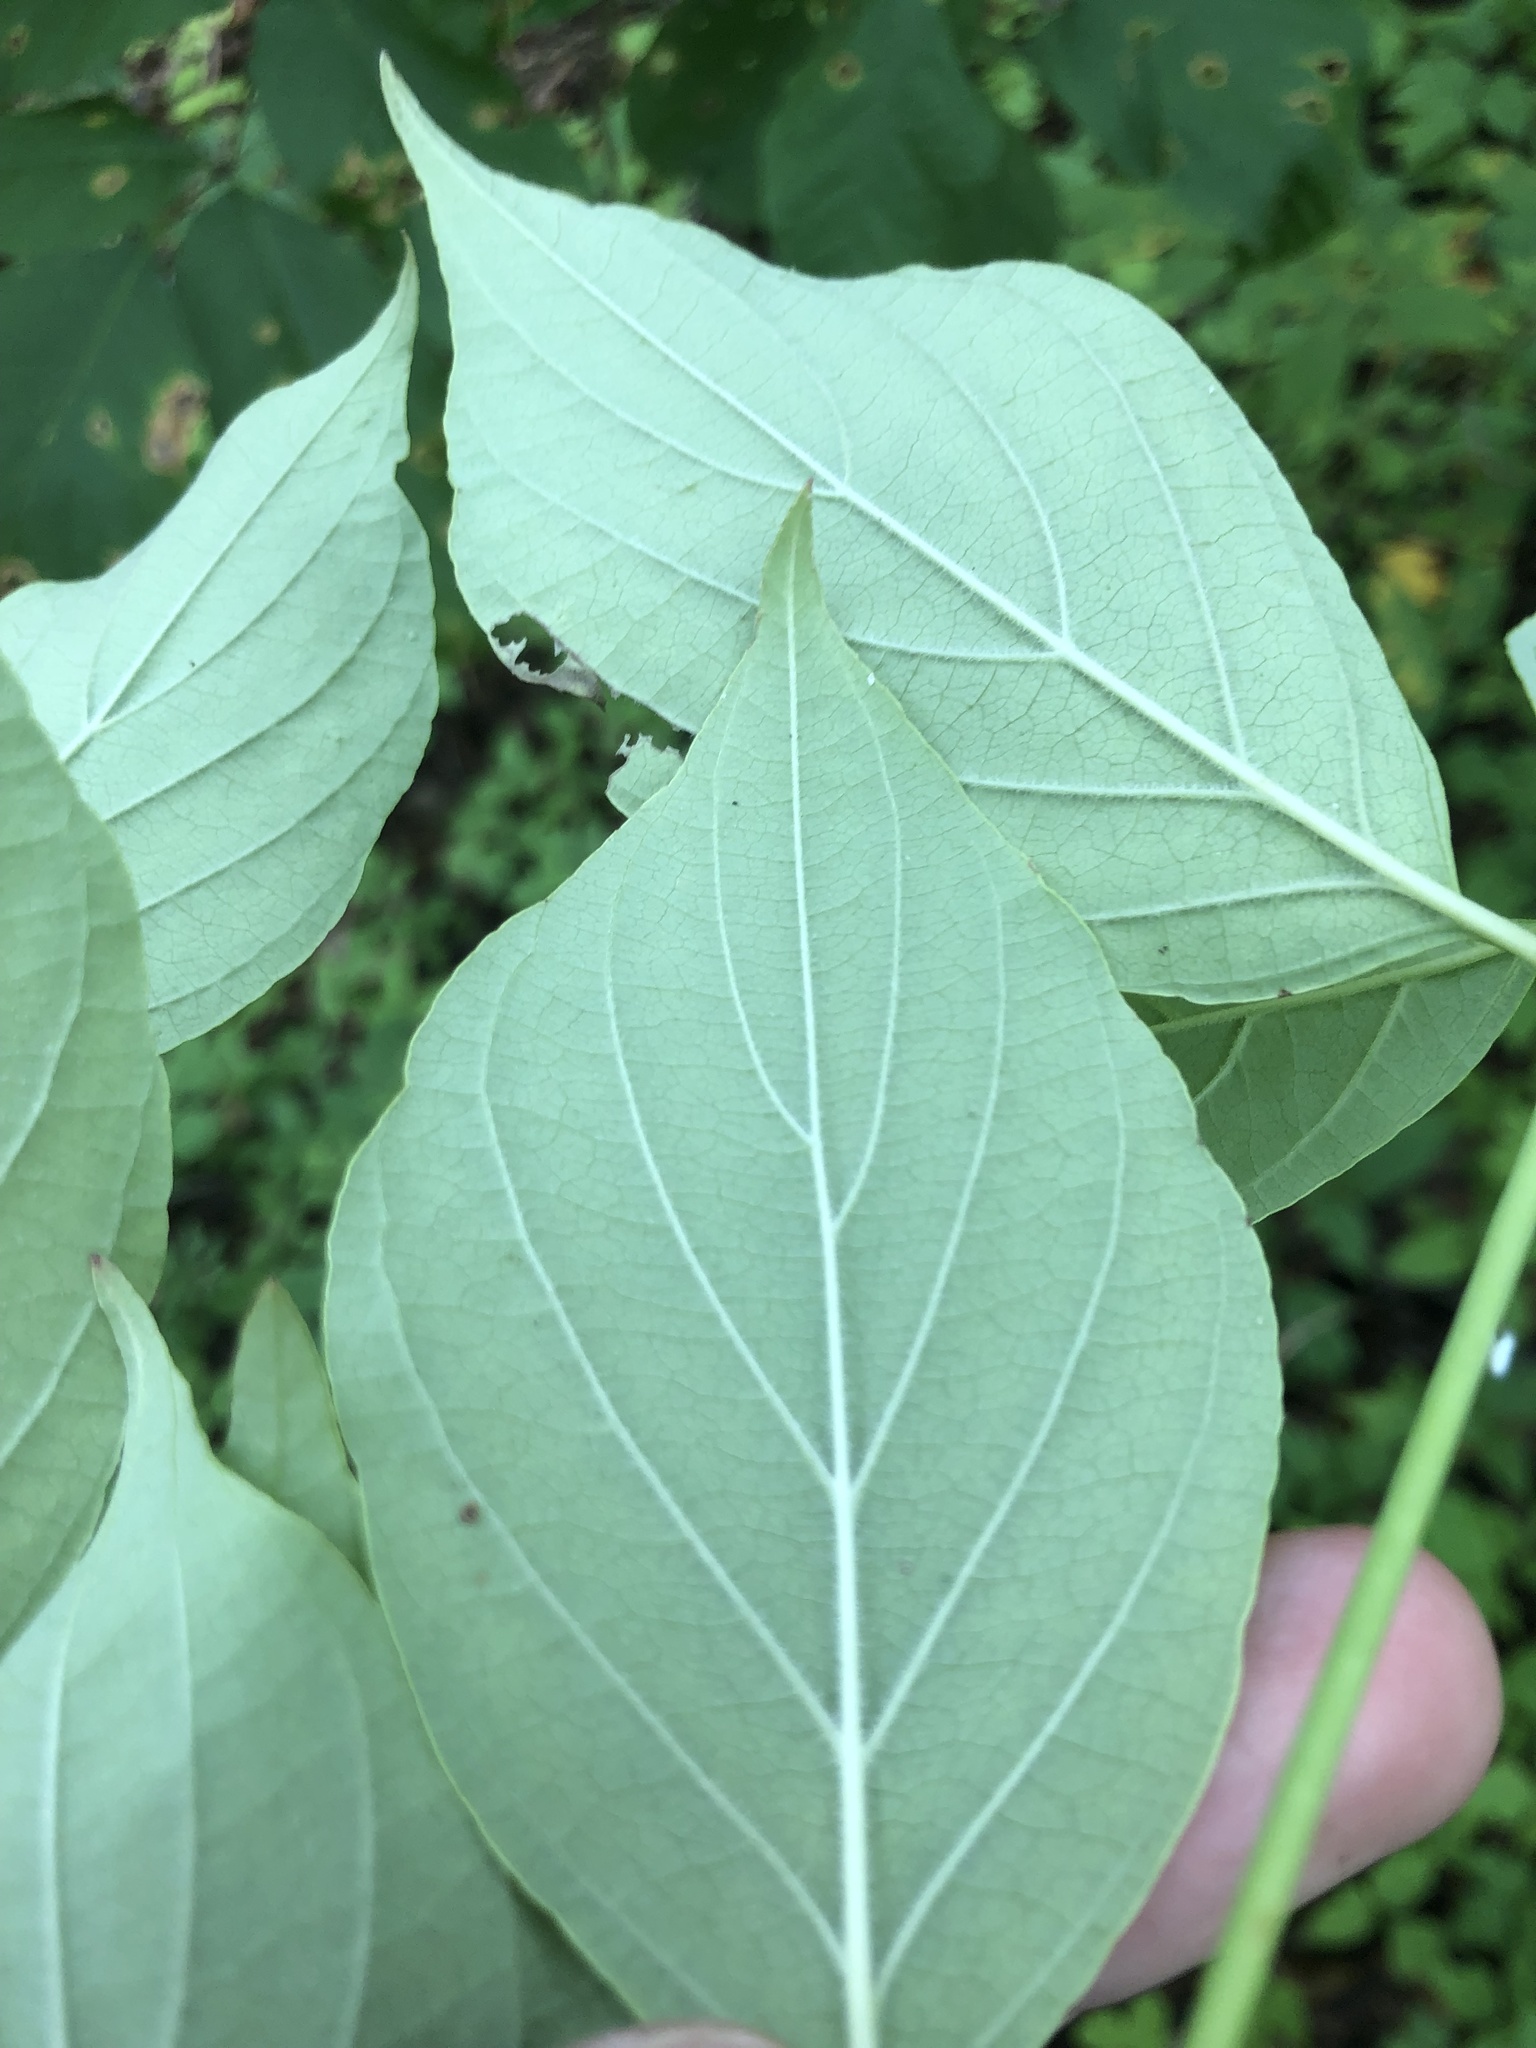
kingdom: Plantae
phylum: Tracheophyta
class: Magnoliopsida
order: Cornales
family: Cornaceae
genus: Cornus
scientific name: Cornus amomum
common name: Silky dogwood
